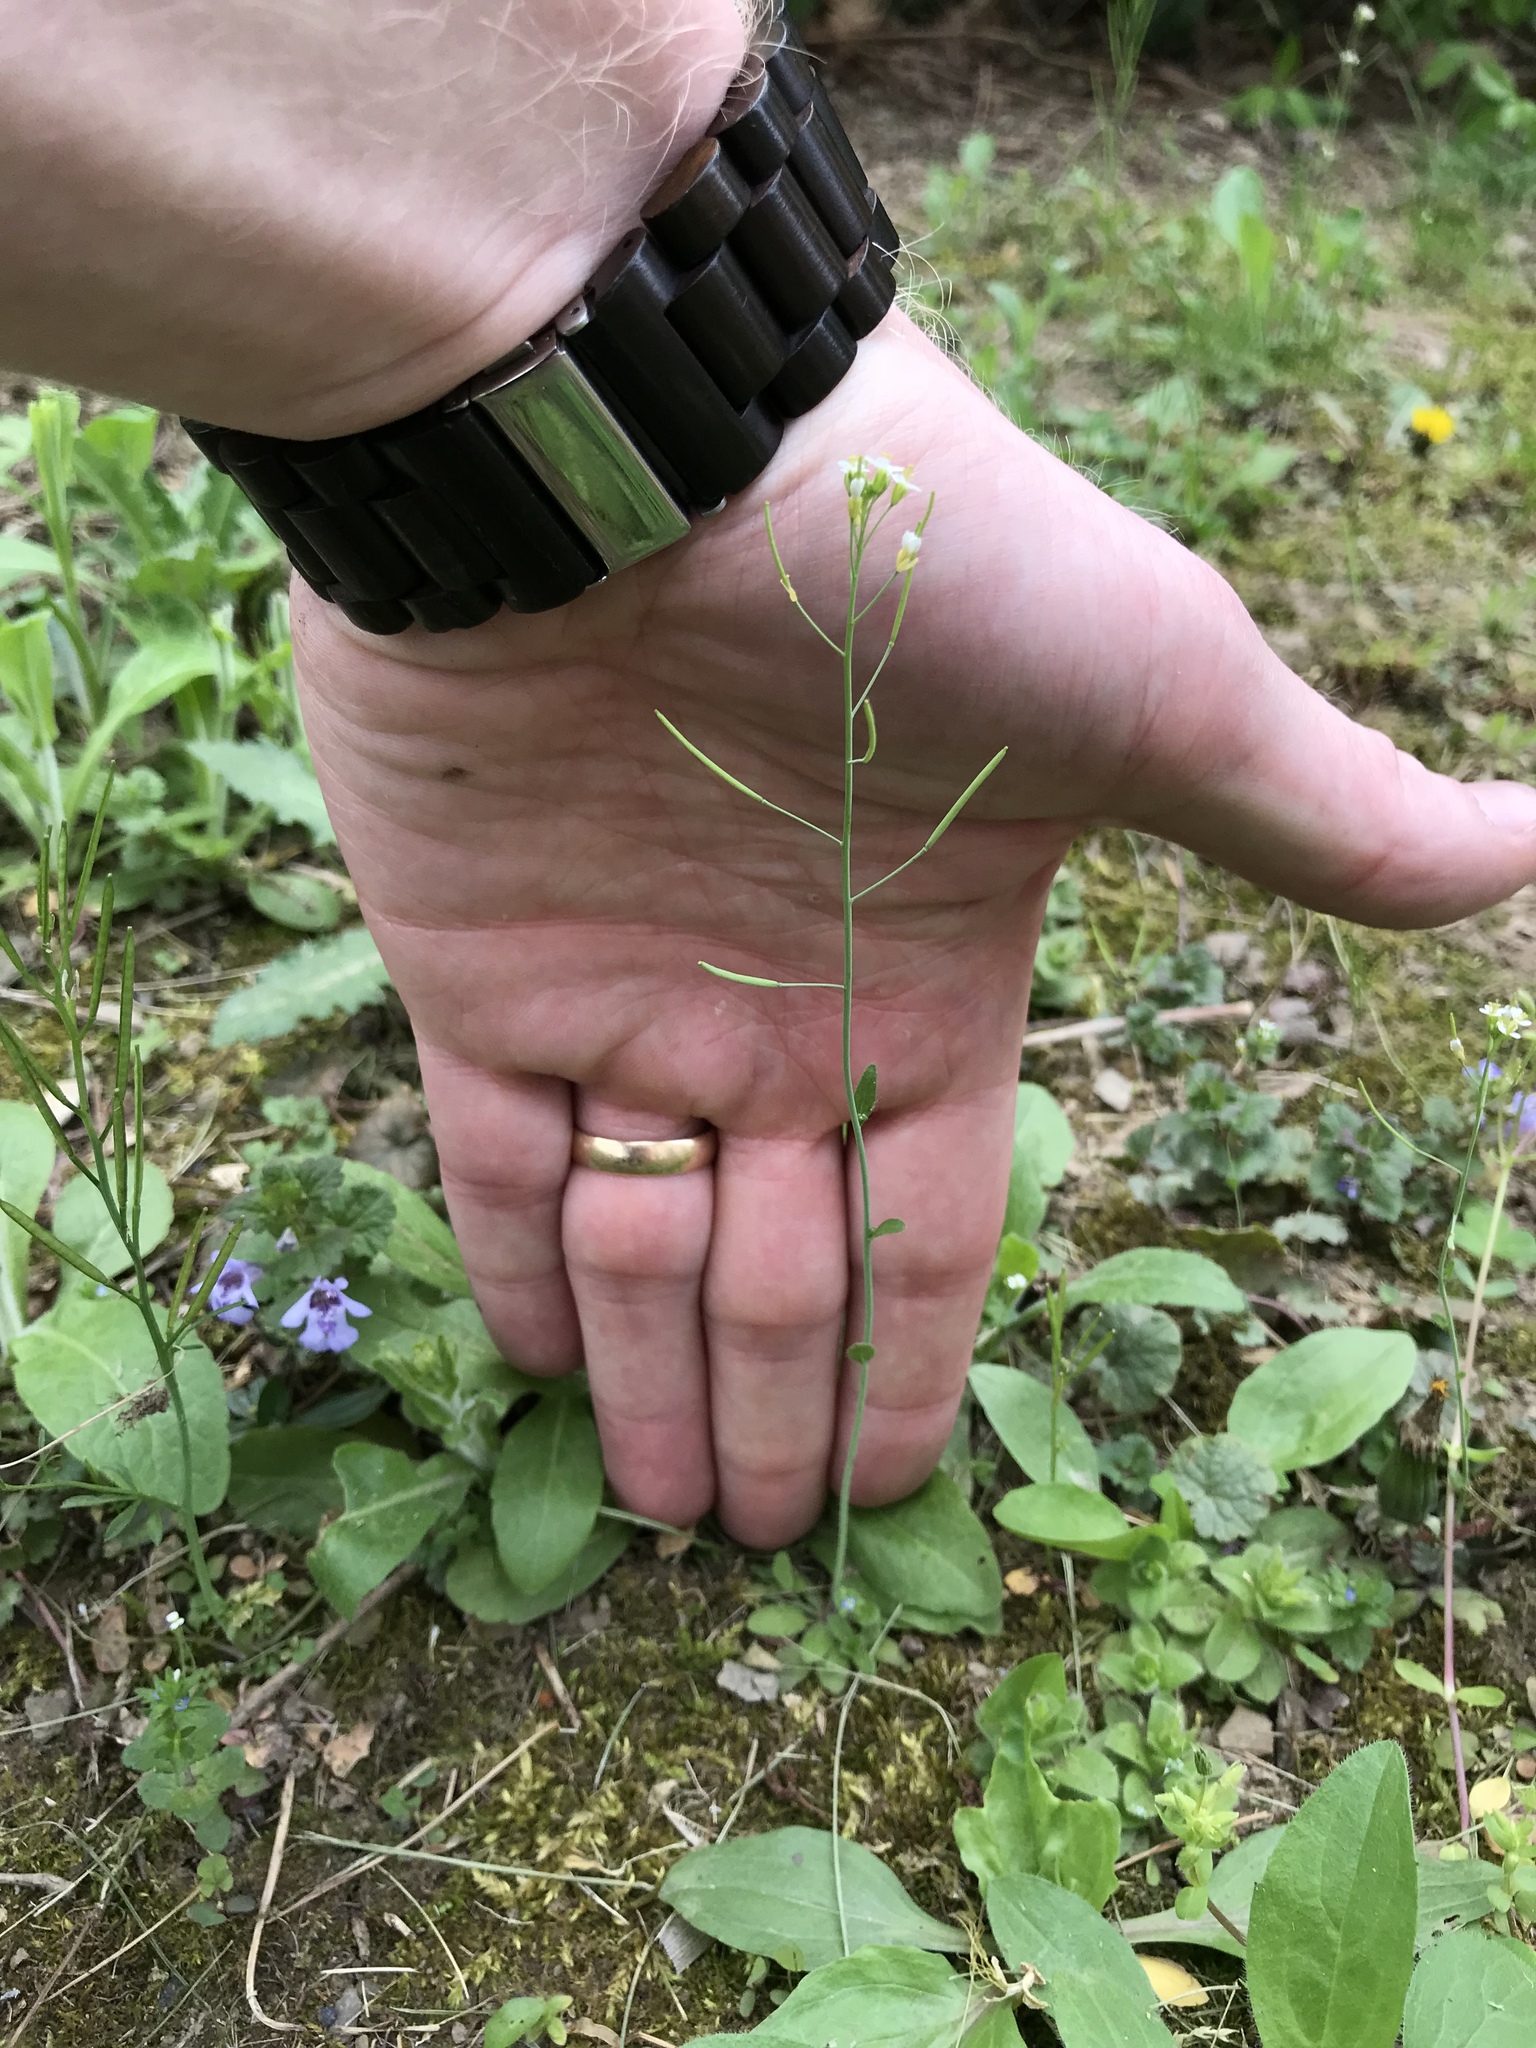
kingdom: Plantae
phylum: Tracheophyta
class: Magnoliopsida
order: Brassicales
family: Brassicaceae
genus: Arabidopsis
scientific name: Arabidopsis thaliana
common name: Thale cress
